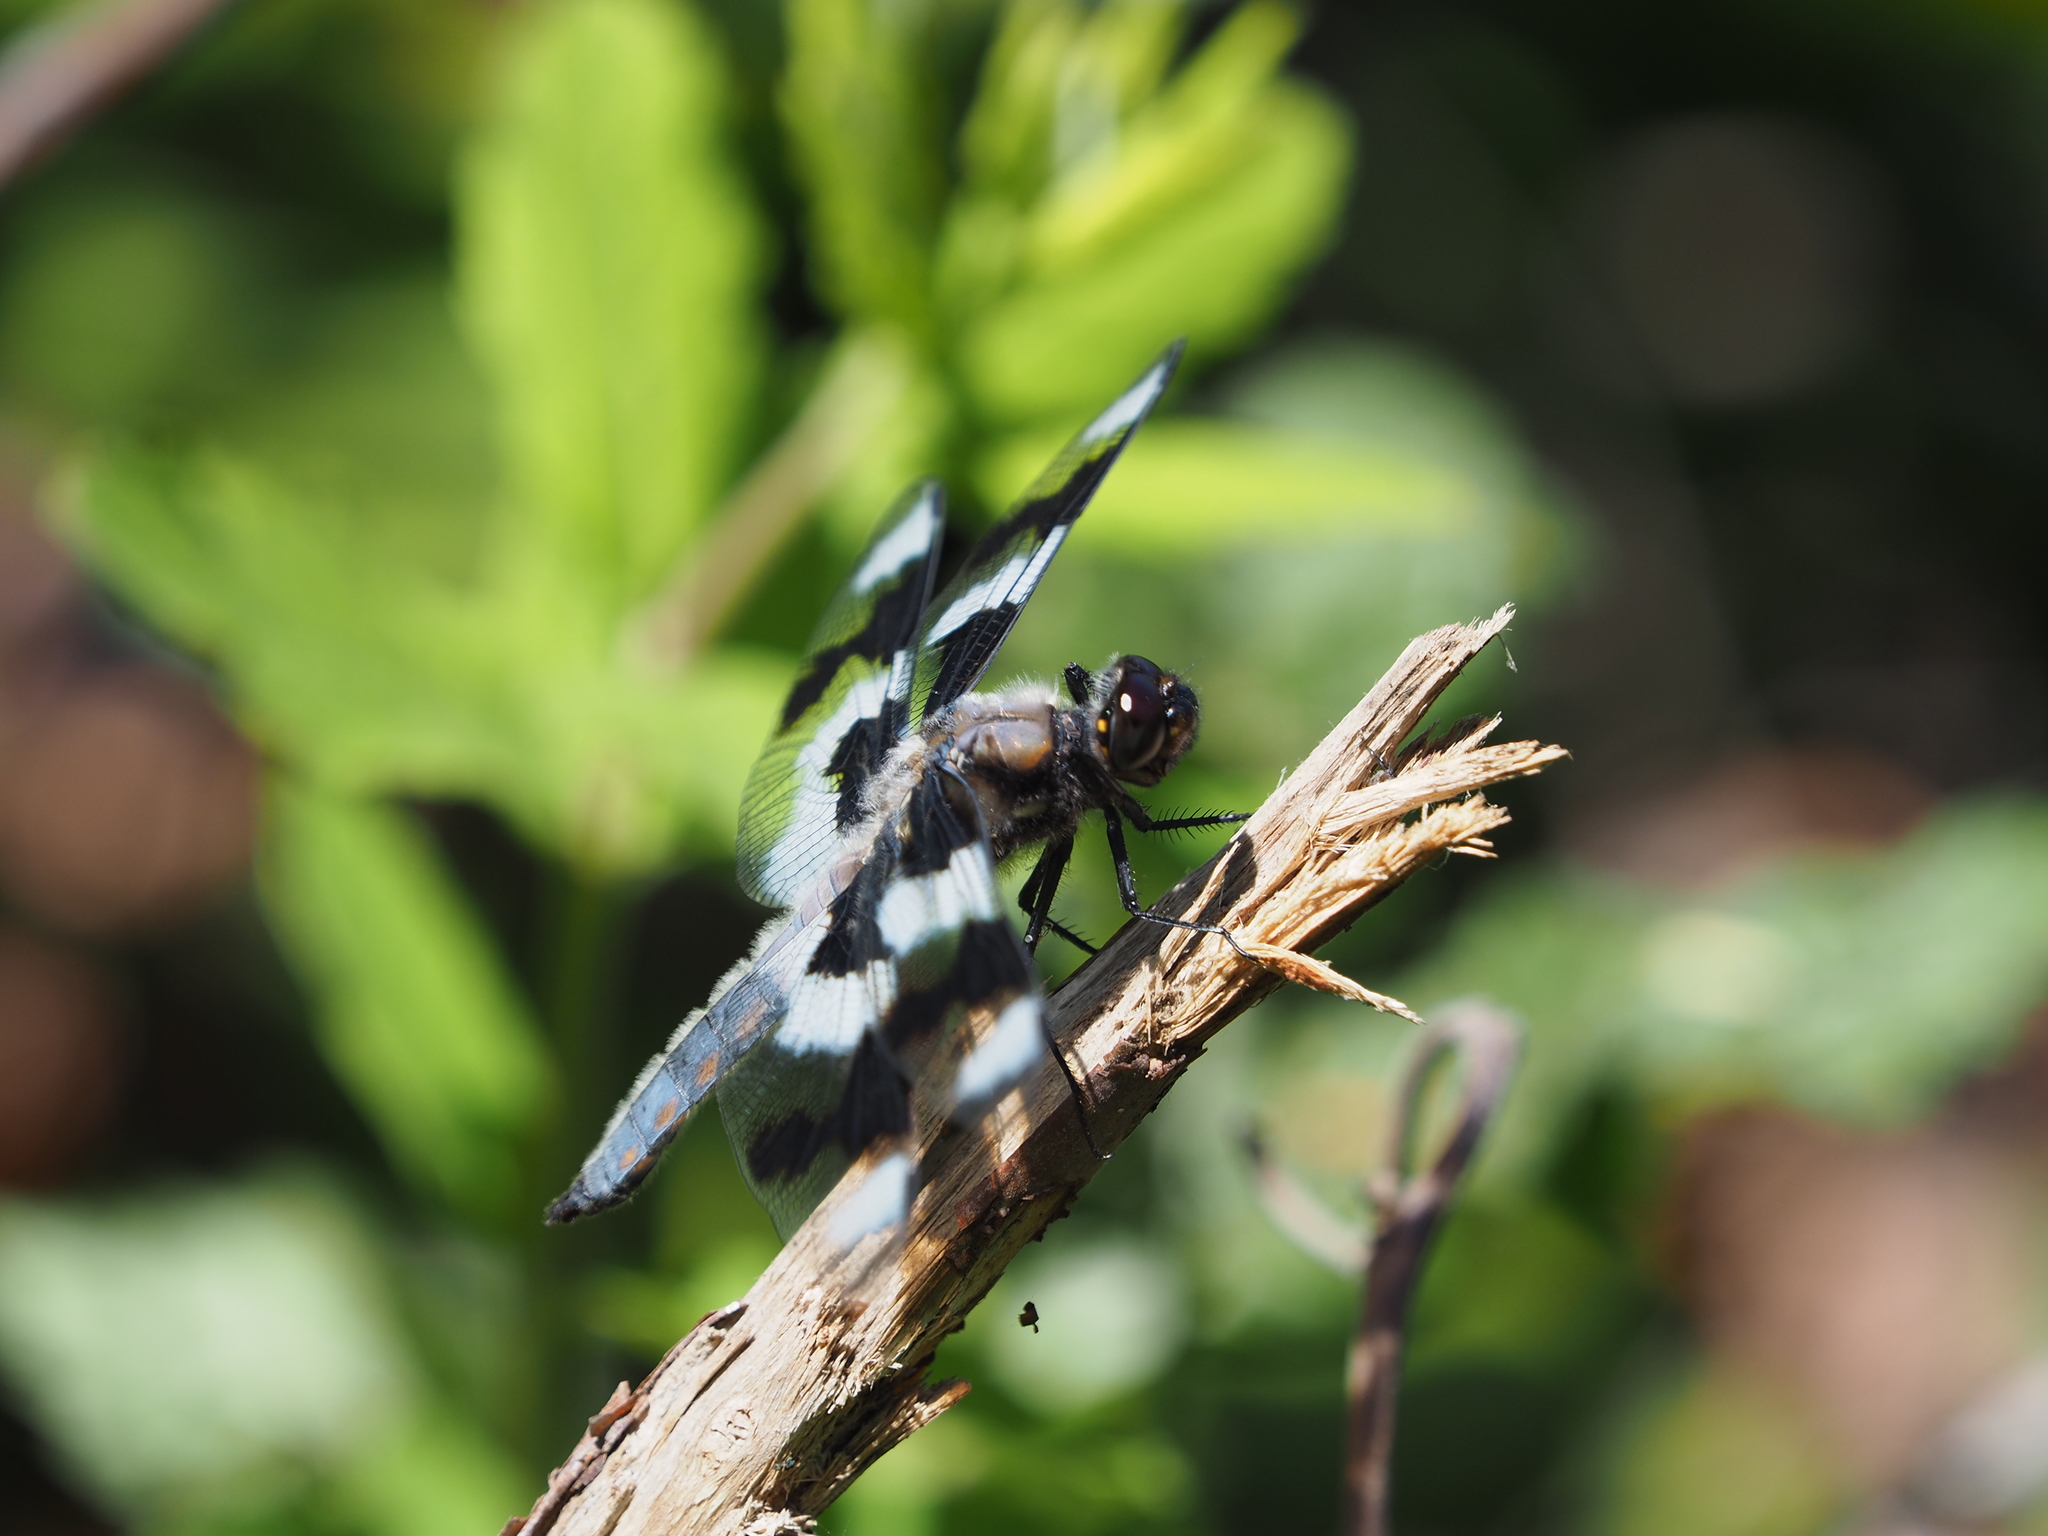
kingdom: Animalia
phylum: Arthropoda
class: Insecta
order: Odonata
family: Libellulidae
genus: Libellula
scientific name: Libellula forensis
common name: Eight-spotted skimmer
